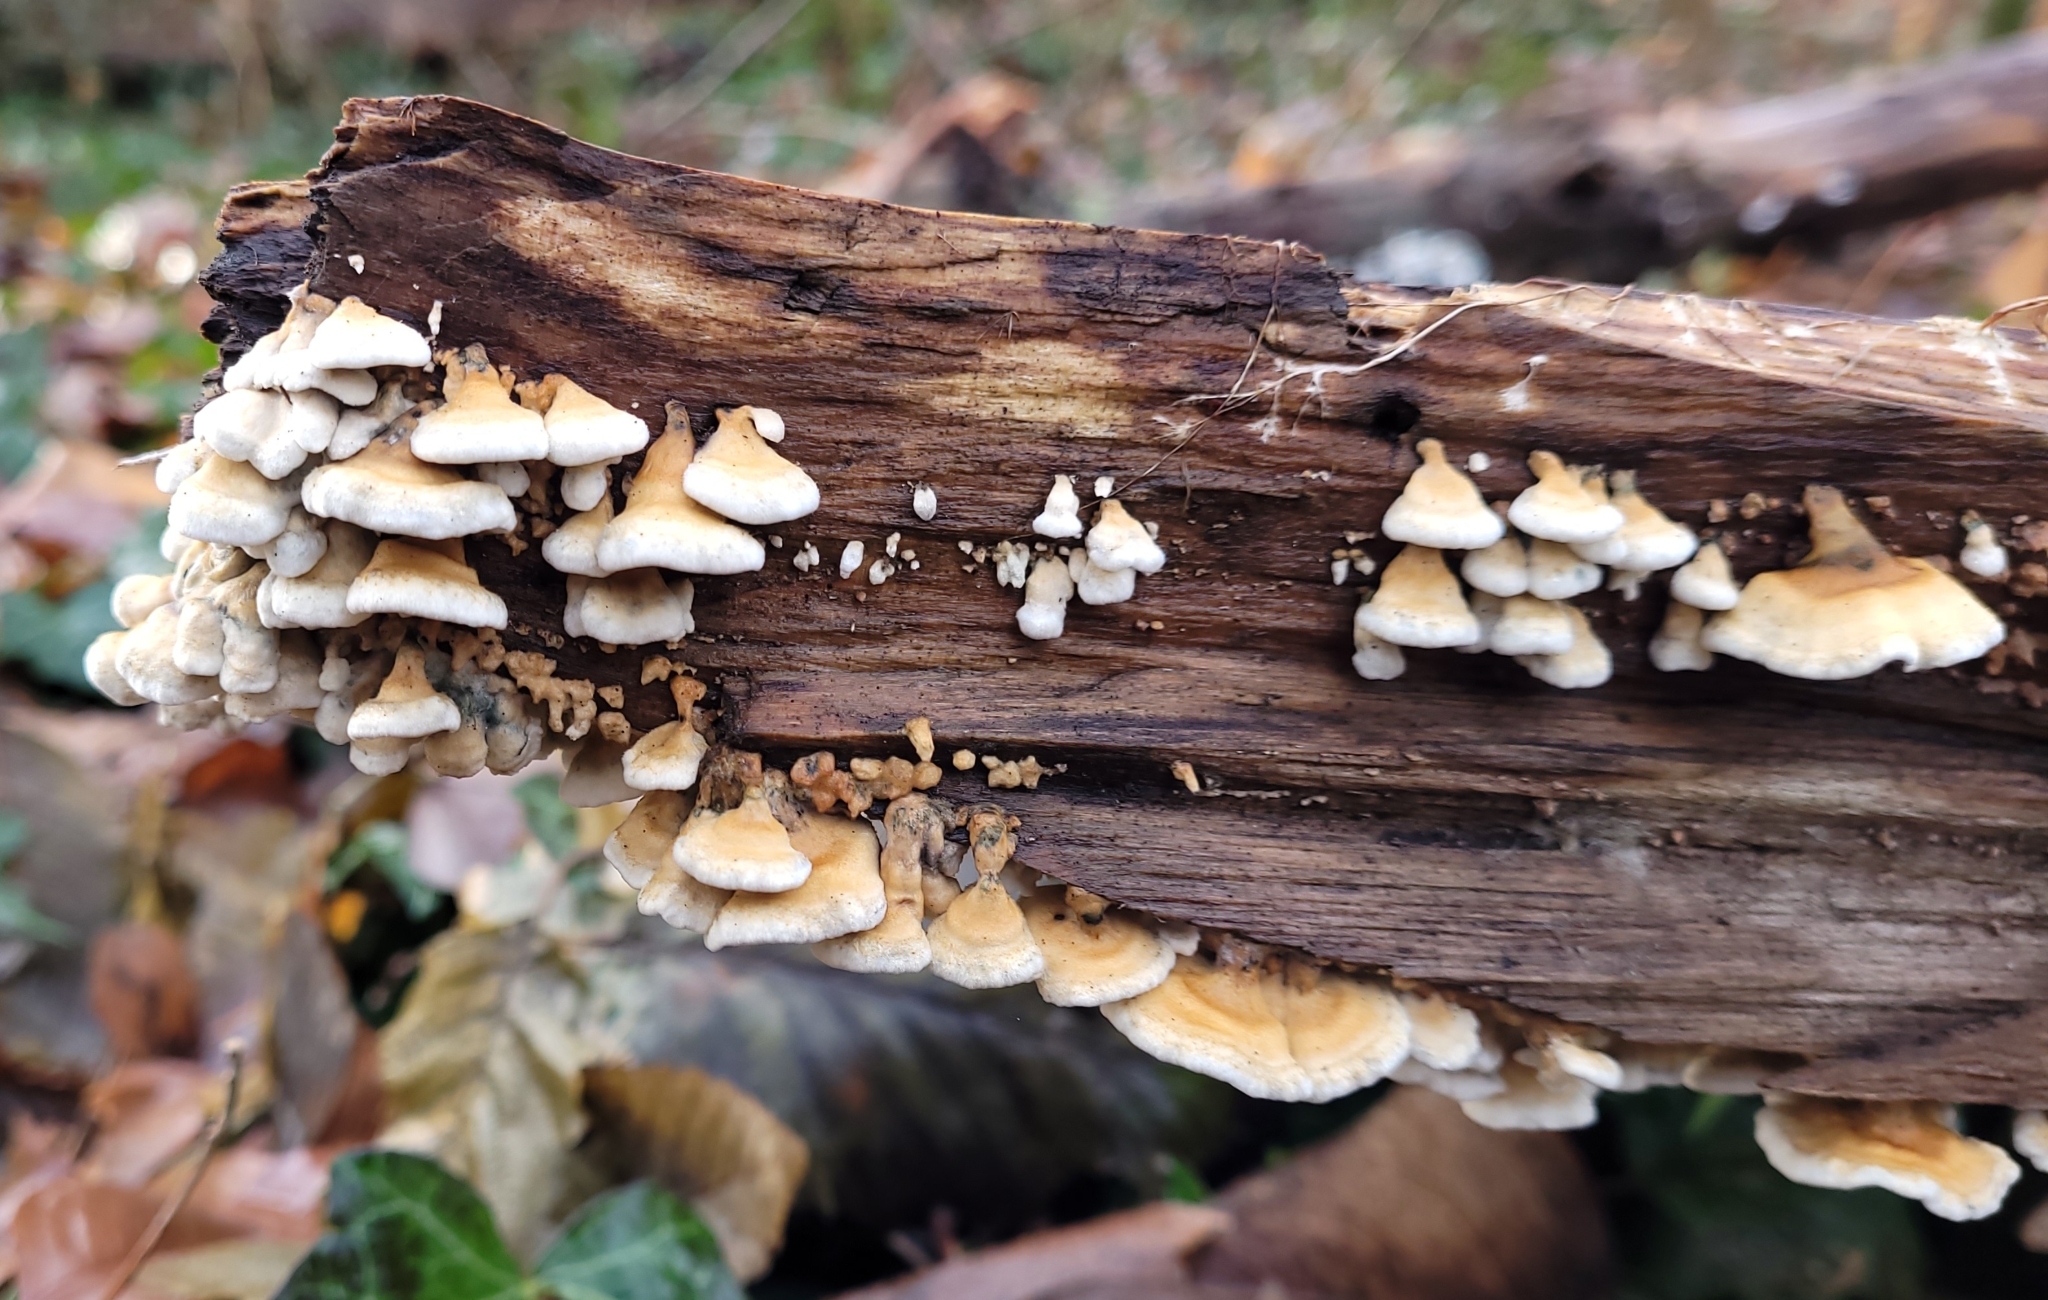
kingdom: Fungi
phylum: Basidiomycota
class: Agaricomycetes
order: Amylocorticiales
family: Amylocorticiaceae
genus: Plicaturopsis
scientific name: Plicaturopsis crispa
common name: Crimped gill
